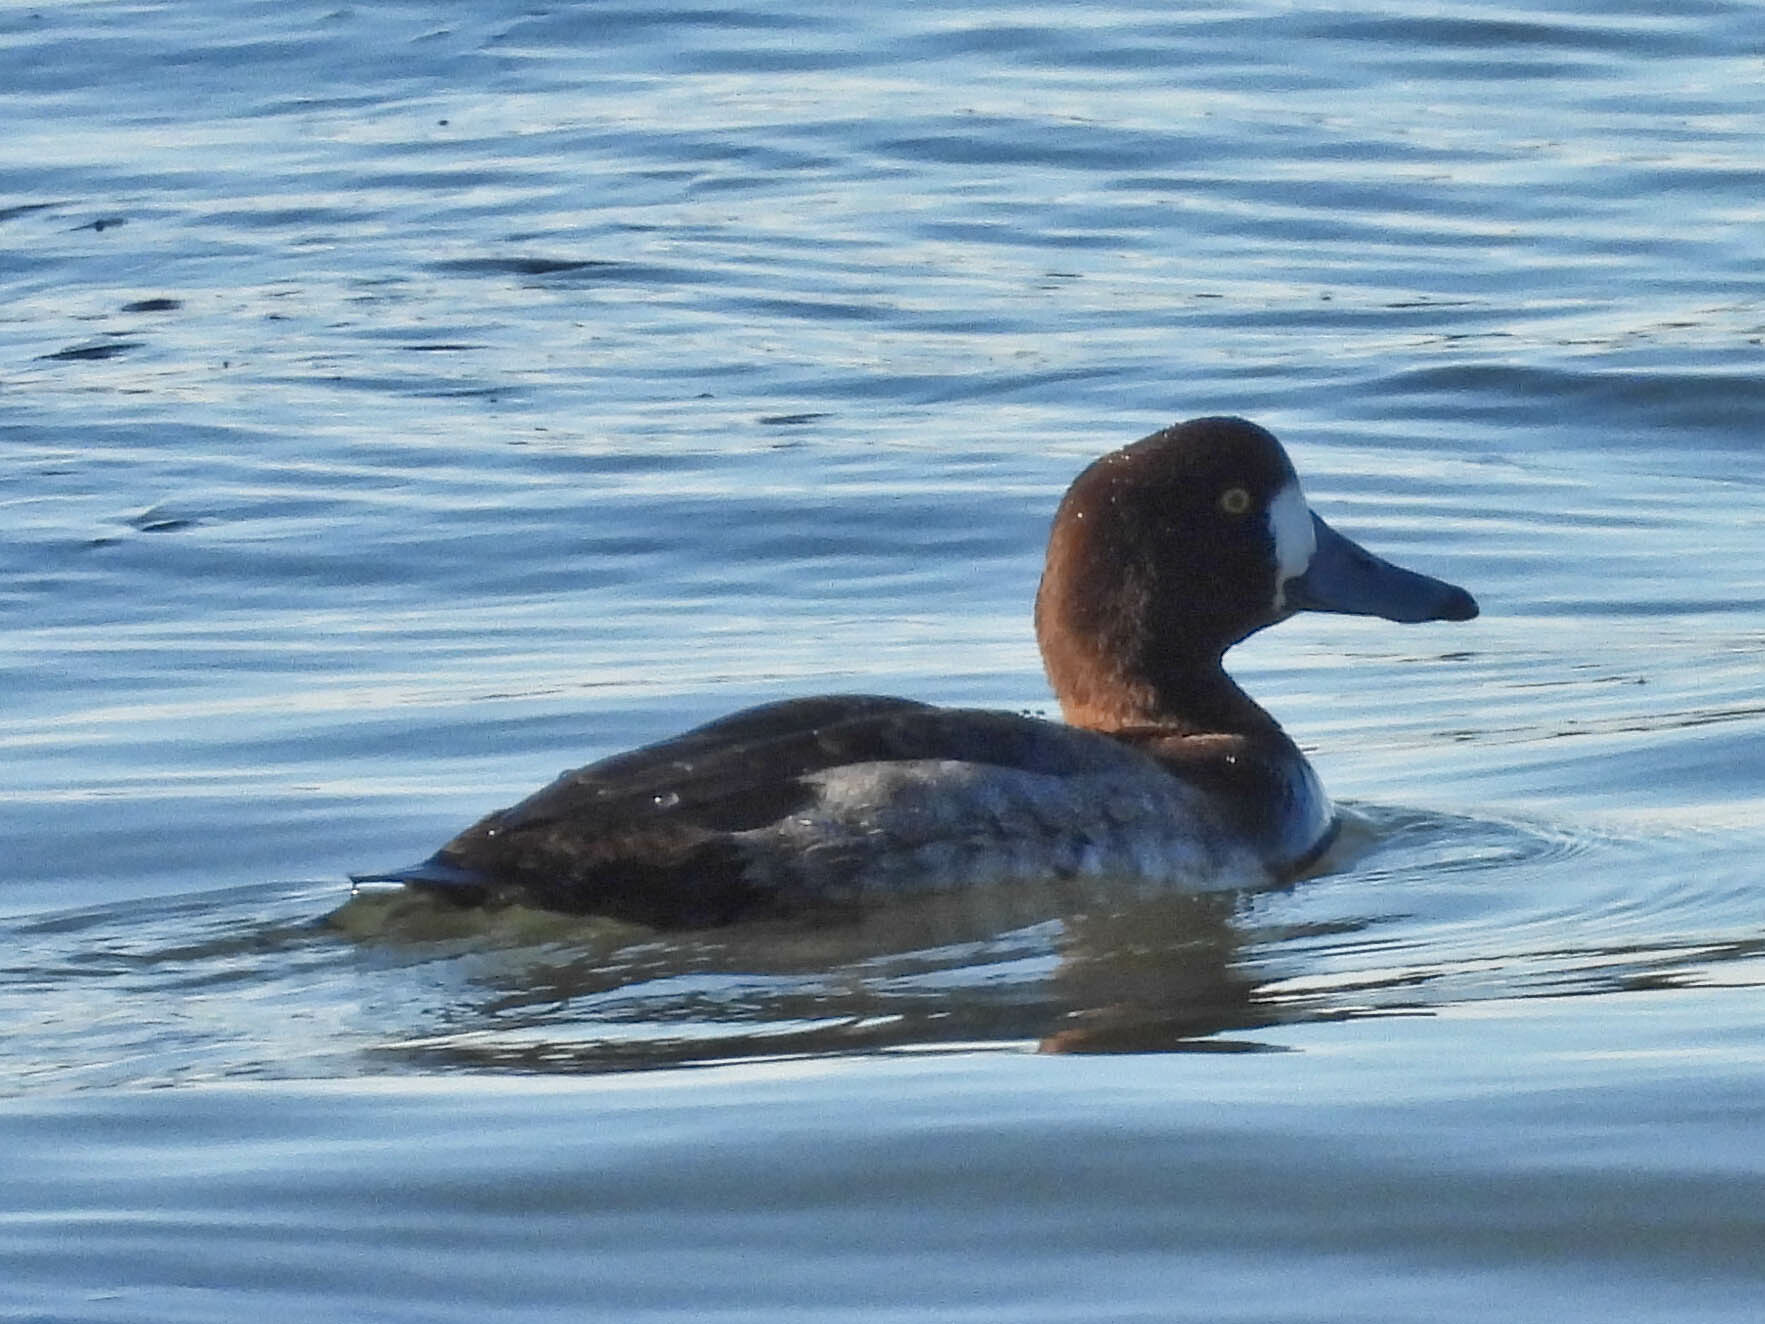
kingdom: Animalia
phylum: Chordata
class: Aves
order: Anseriformes
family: Anatidae
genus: Aythya
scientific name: Aythya marila
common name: Greater scaup
